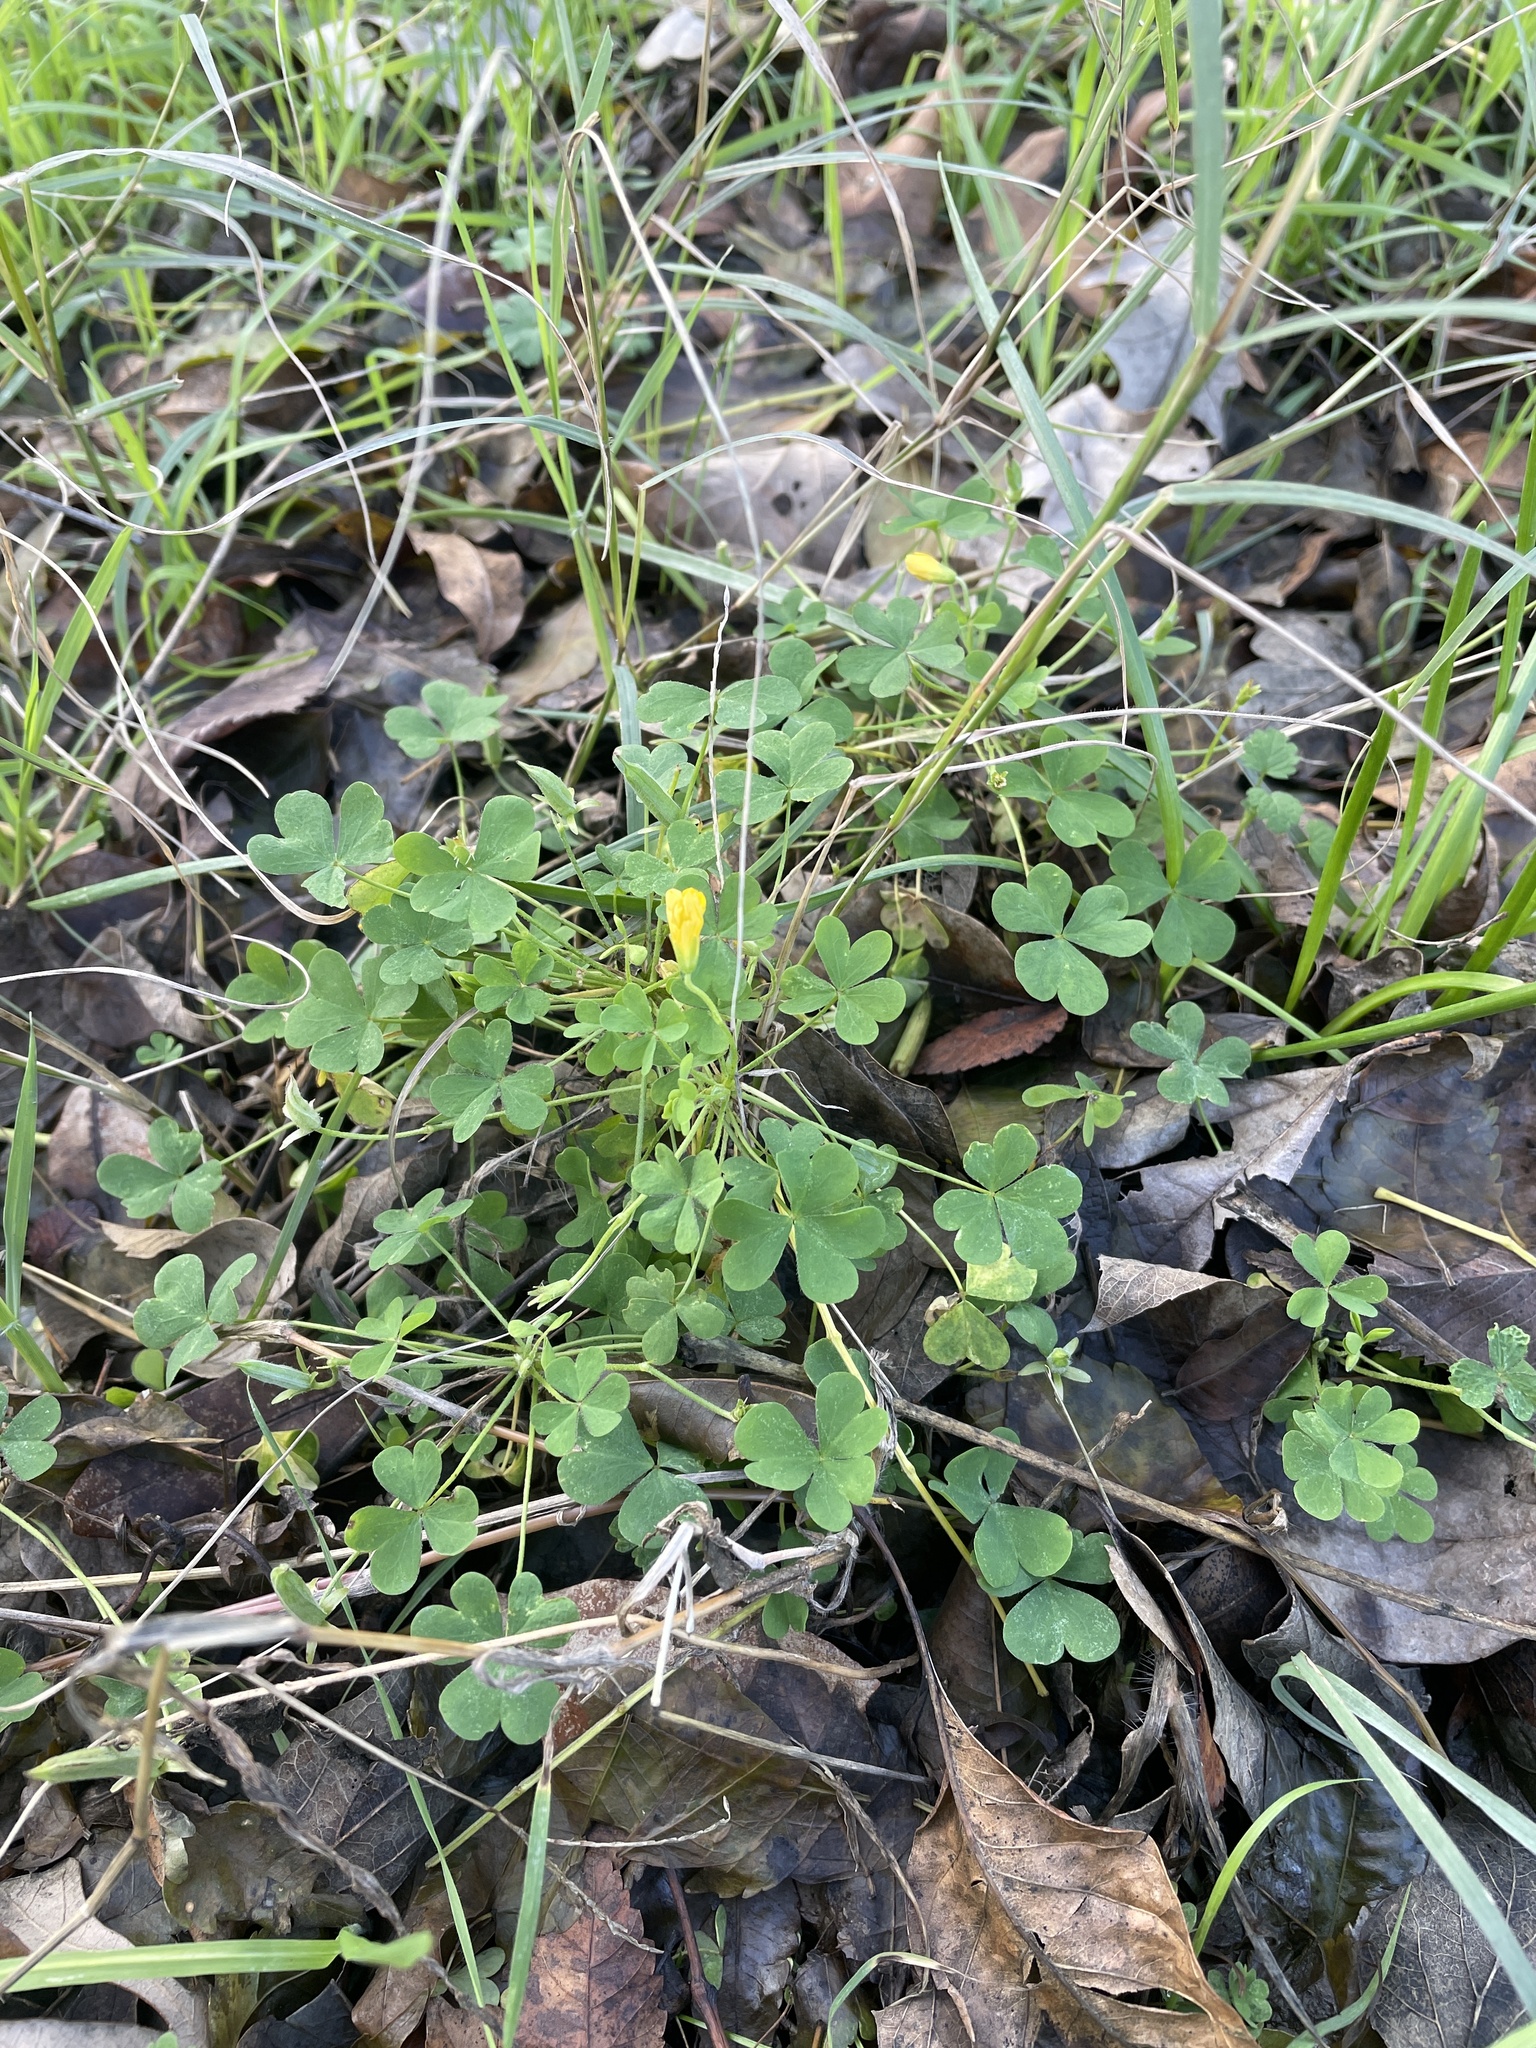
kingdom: Plantae
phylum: Tracheophyta
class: Magnoliopsida
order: Oxalidales
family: Oxalidaceae
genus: Oxalis
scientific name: Oxalis dillenii
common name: Sussex yellow-sorrel
